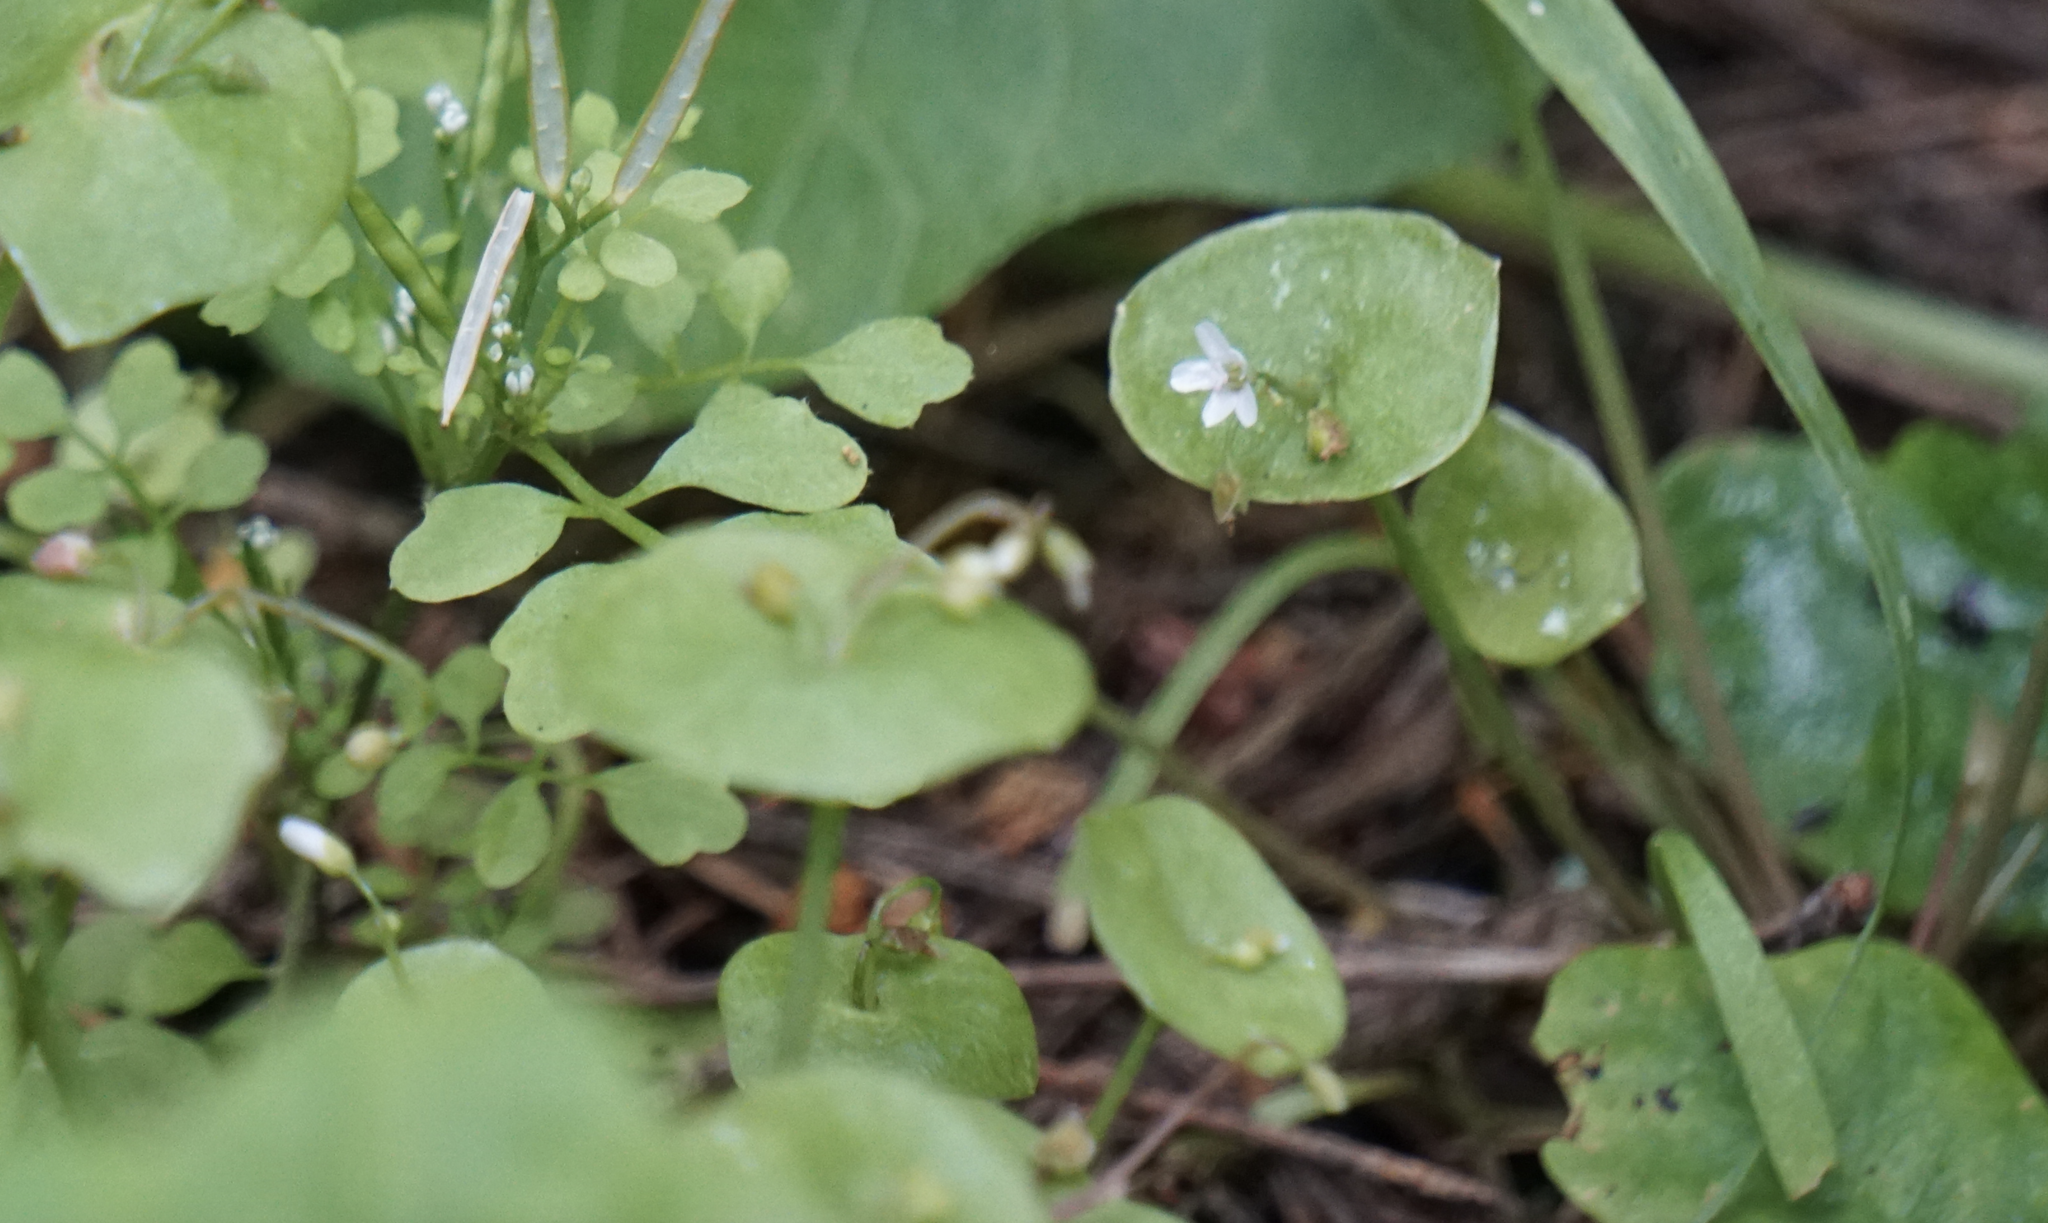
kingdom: Plantae
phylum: Tracheophyta
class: Magnoliopsida
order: Caryophyllales
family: Montiaceae
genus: Claytonia
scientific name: Claytonia perfoliata
